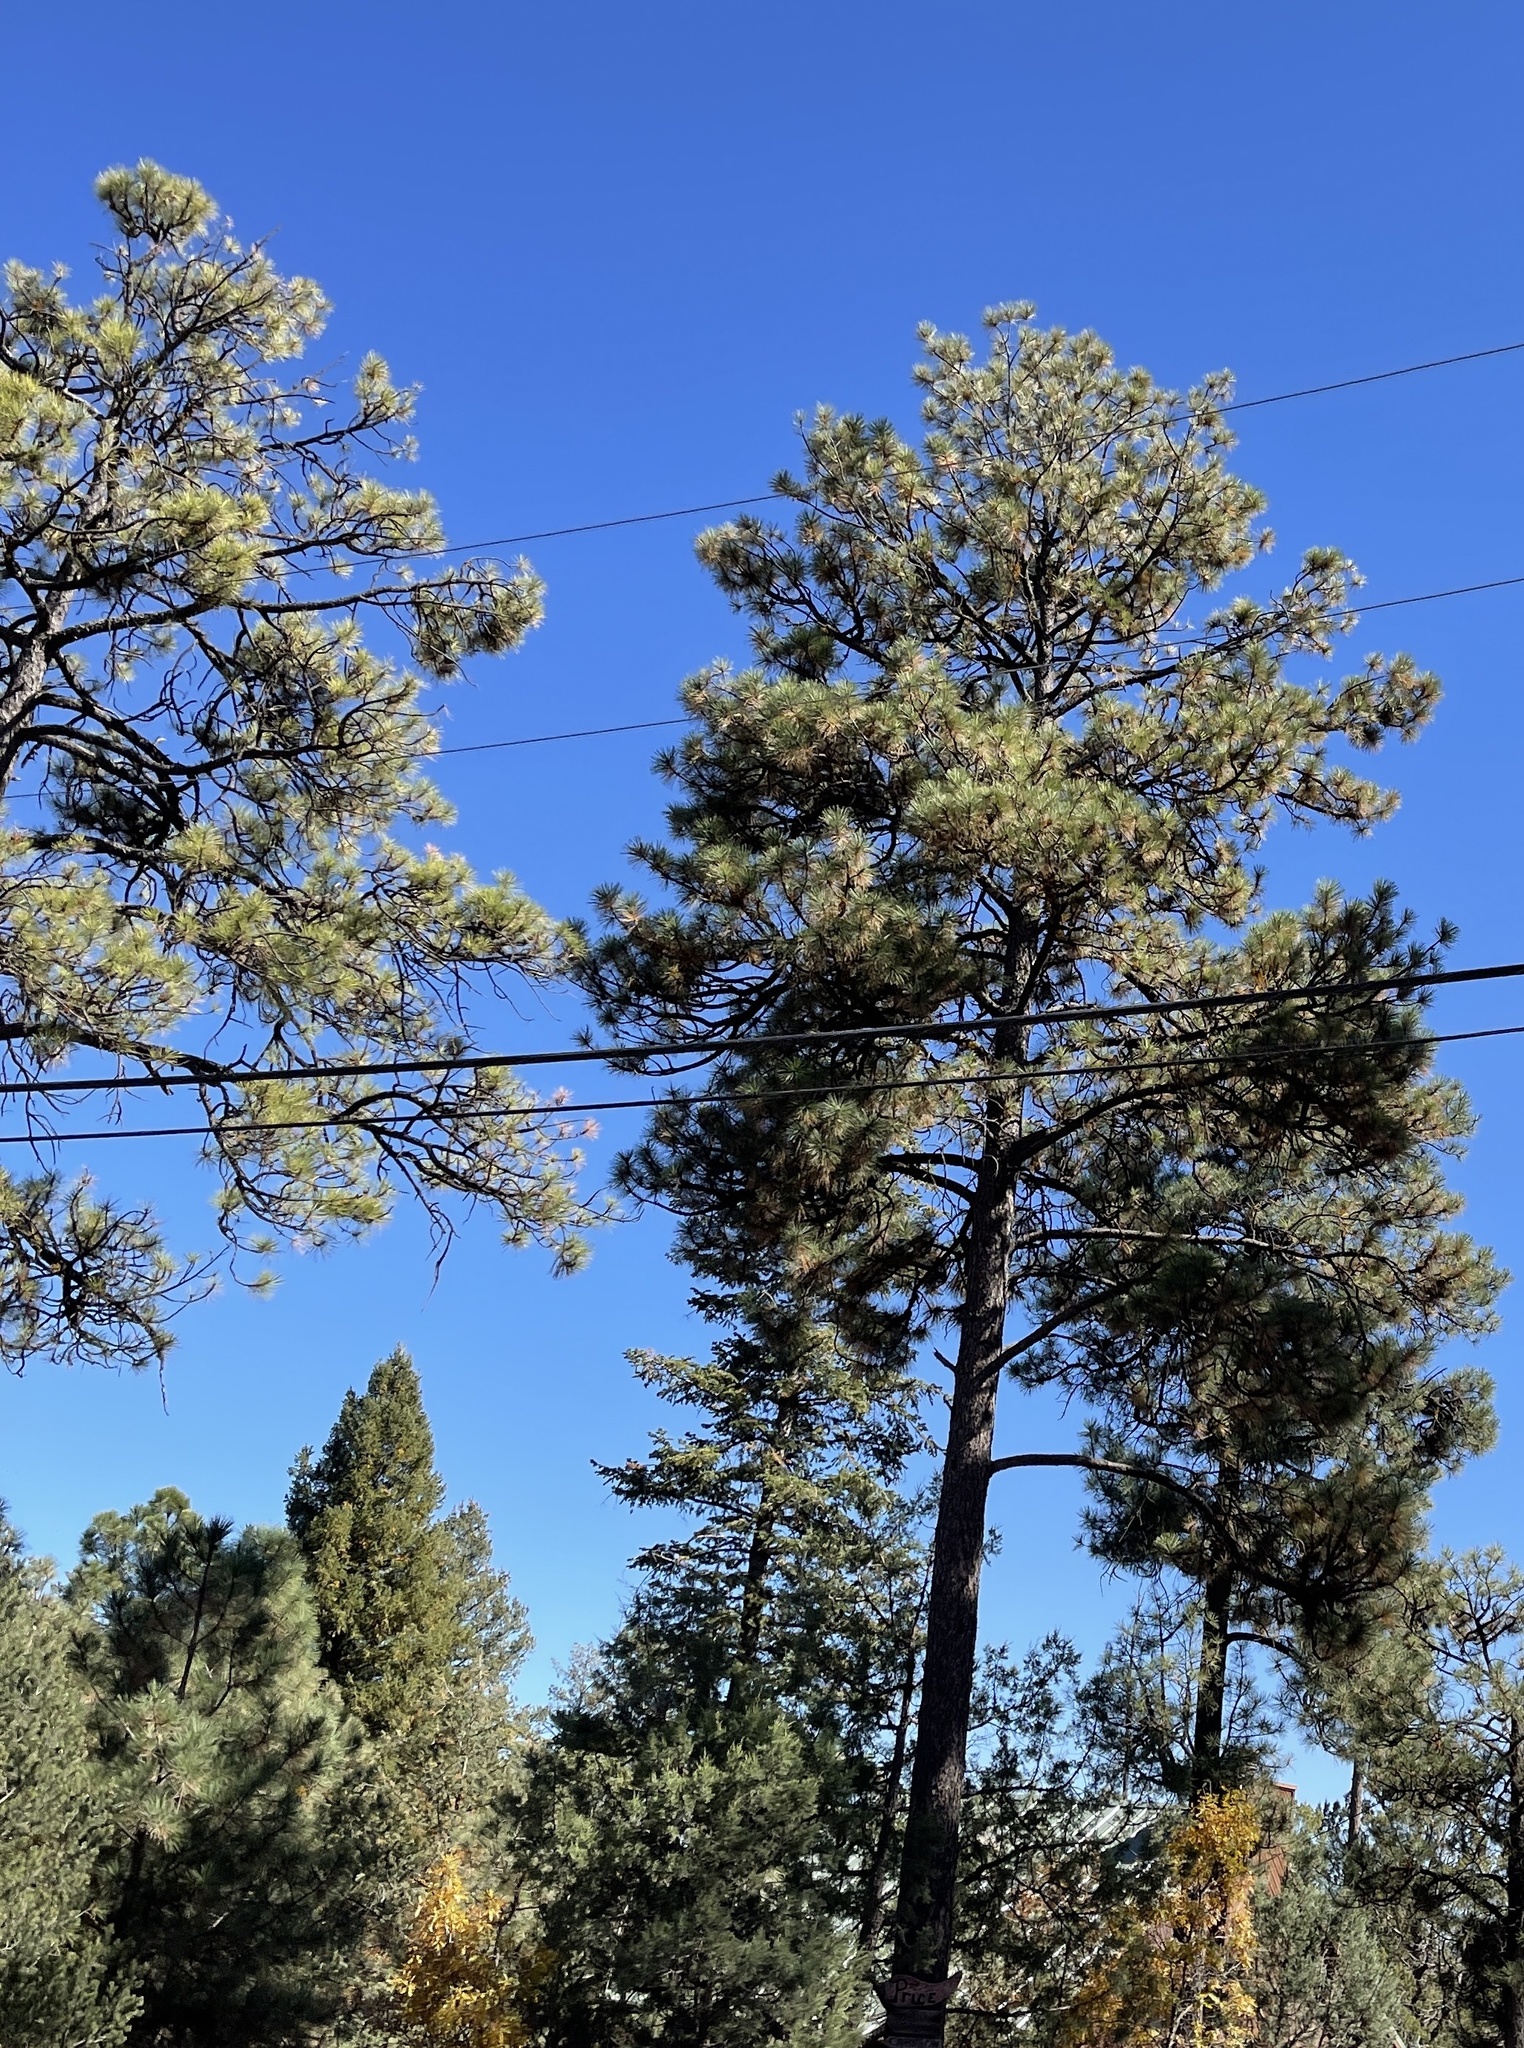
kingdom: Plantae
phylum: Tracheophyta
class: Pinopsida
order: Pinales
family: Pinaceae
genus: Pinus
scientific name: Pinus ponderosa
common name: Western yellow-pine
